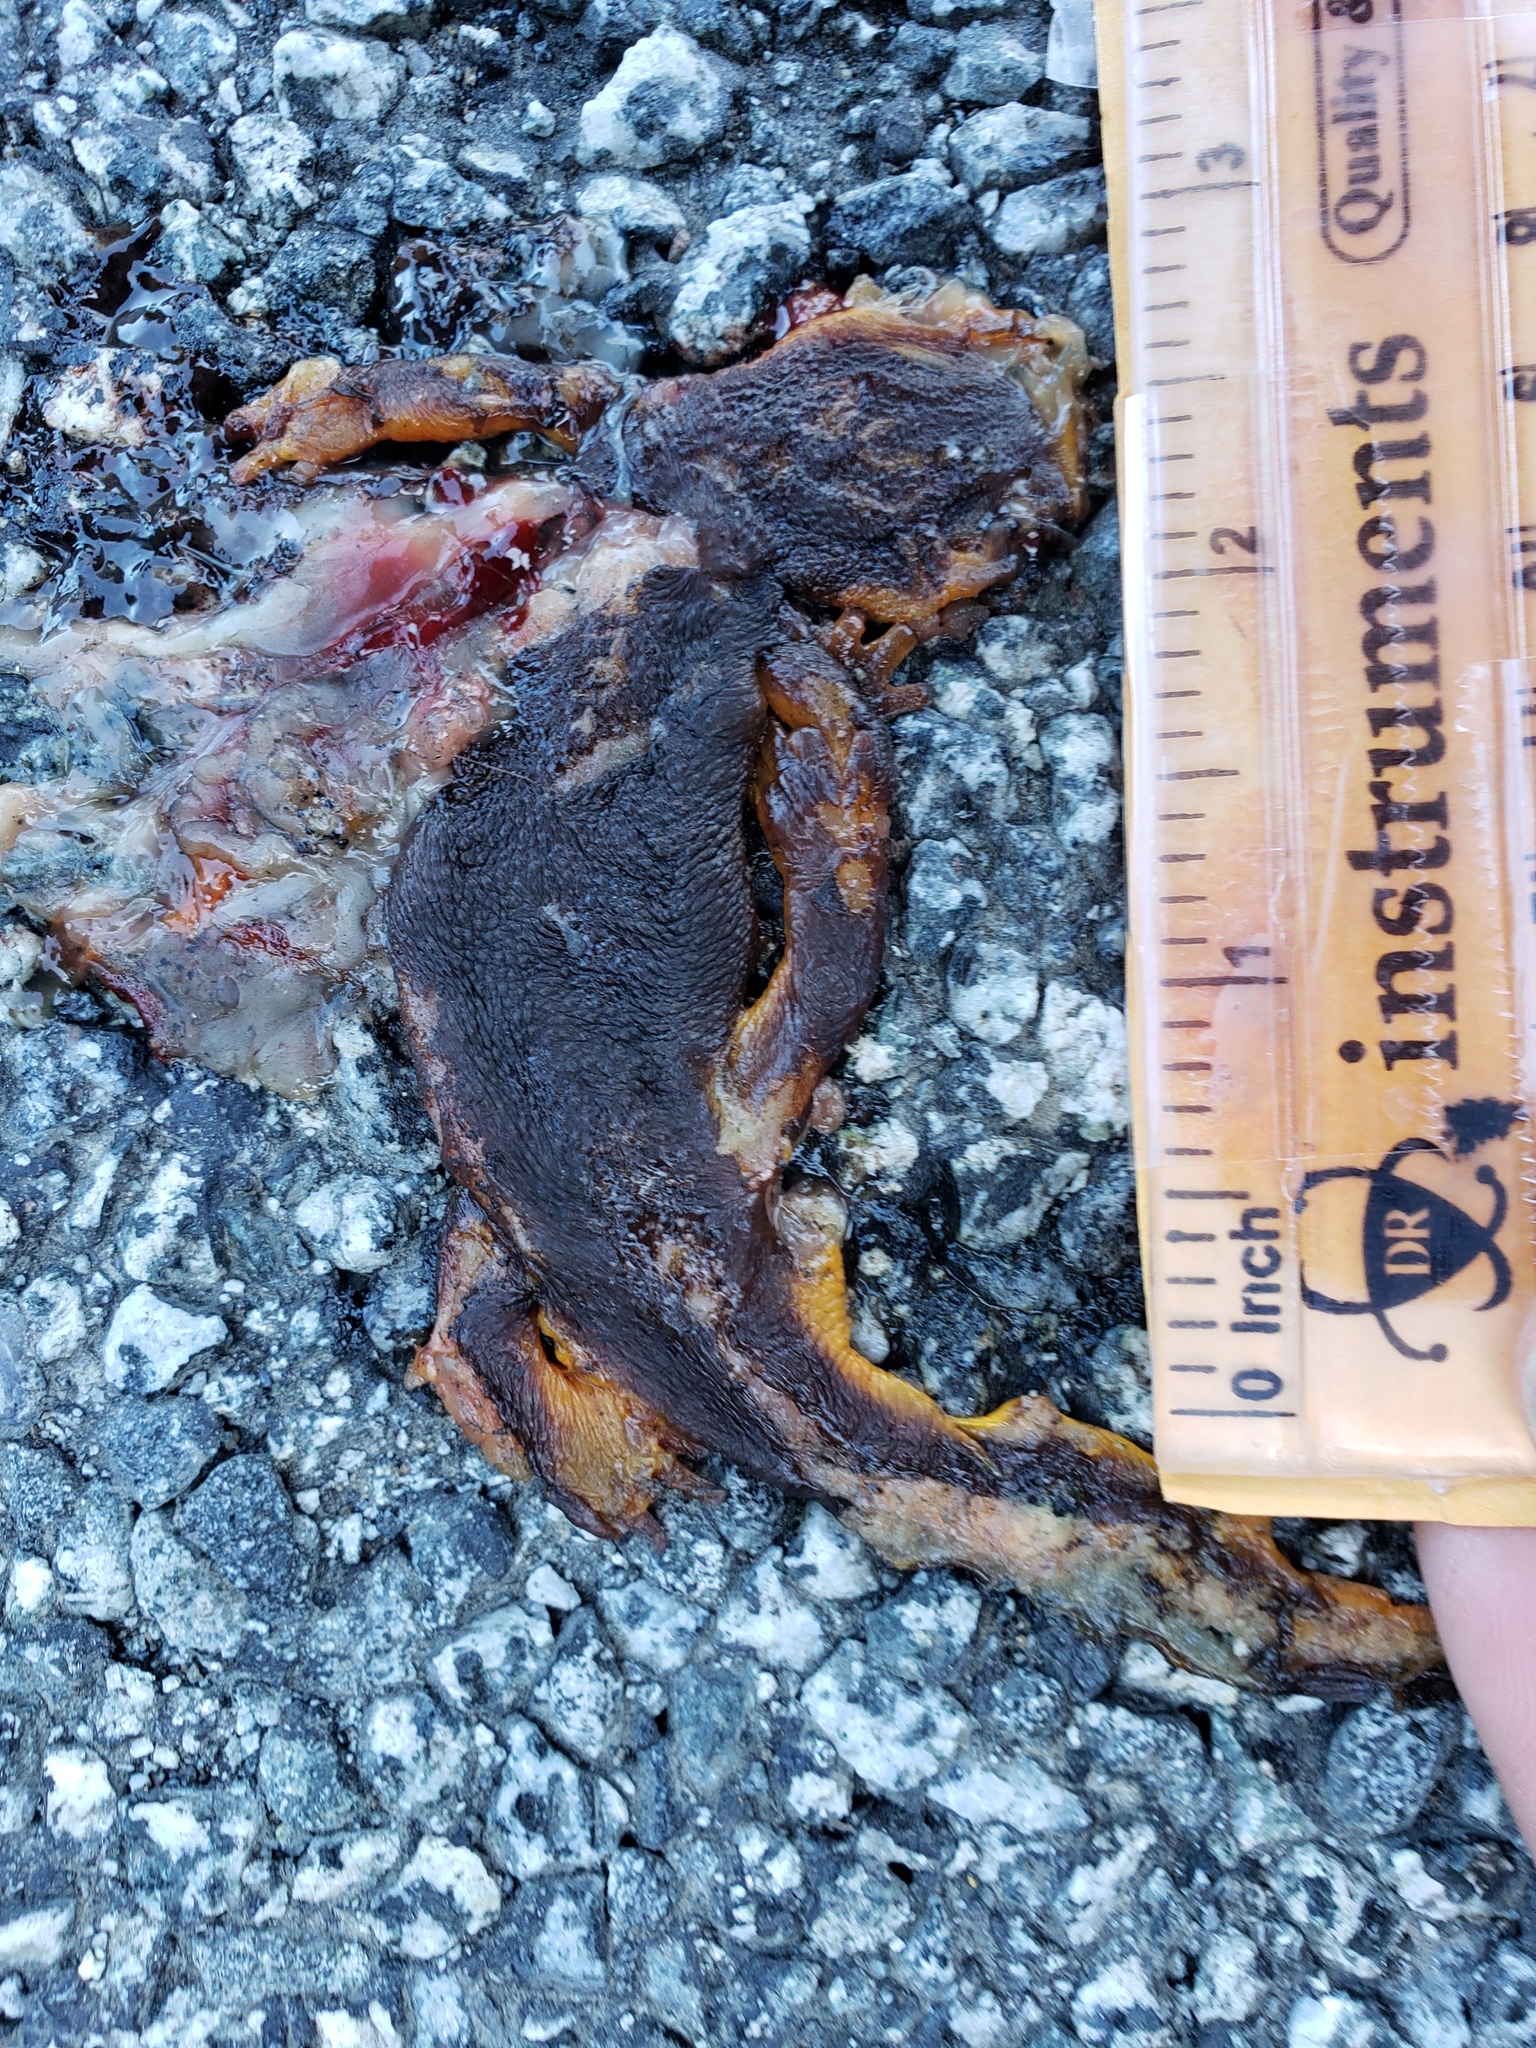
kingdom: Animalia
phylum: Chordata
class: Amphibia
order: Caudata
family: Salamandridae
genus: Taricha
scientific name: Taricha
